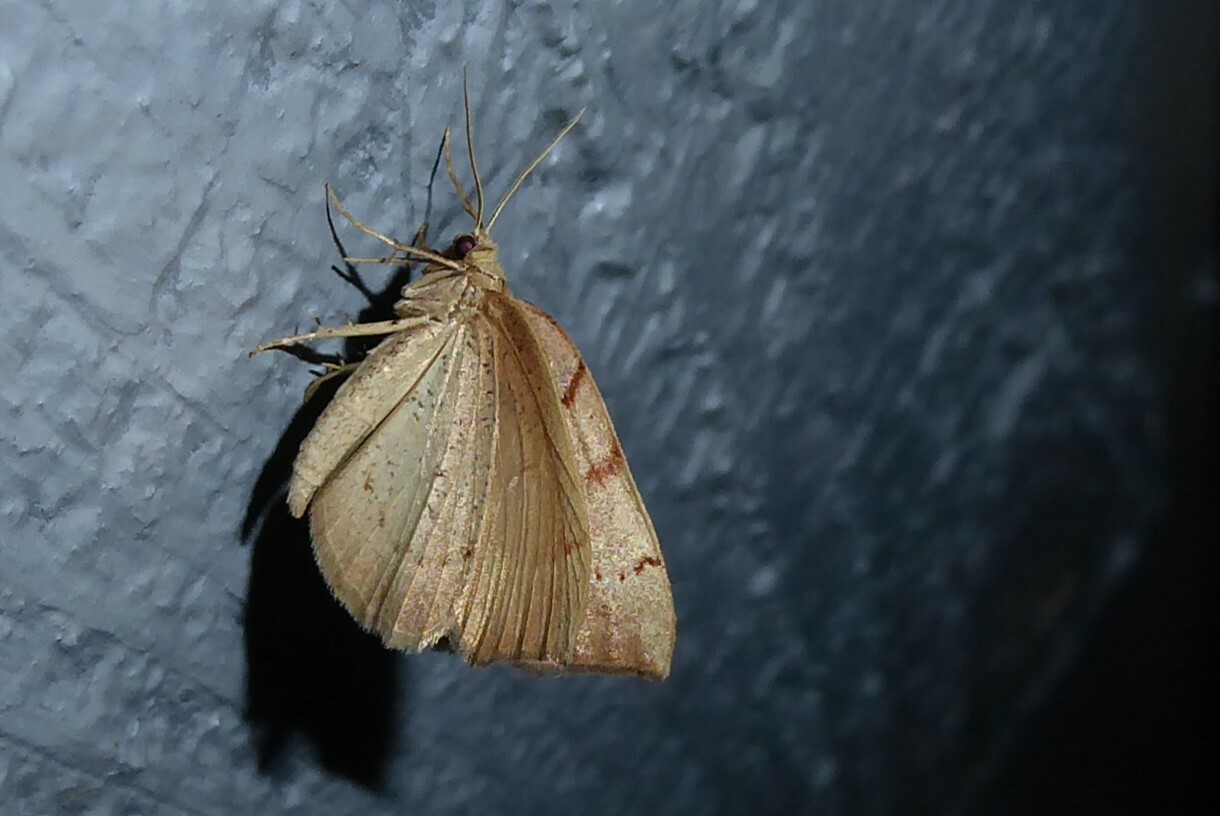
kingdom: Animalia
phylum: Arthropoda
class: Insecta
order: Lepidoptera
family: Geometridae
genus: Sestra
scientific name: Sestra humeraria
